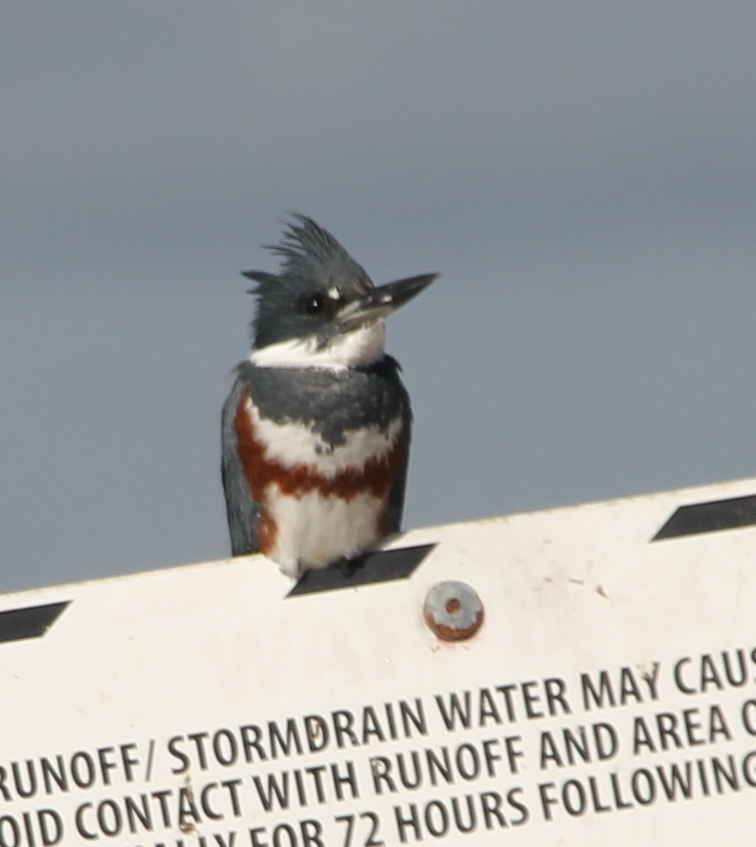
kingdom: Animalia
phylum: Chordata
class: Aves
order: Coraciiformes
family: Alcedinidae
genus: Megaceryle
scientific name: Megaceryle alcyon
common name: Belted kingfisher
